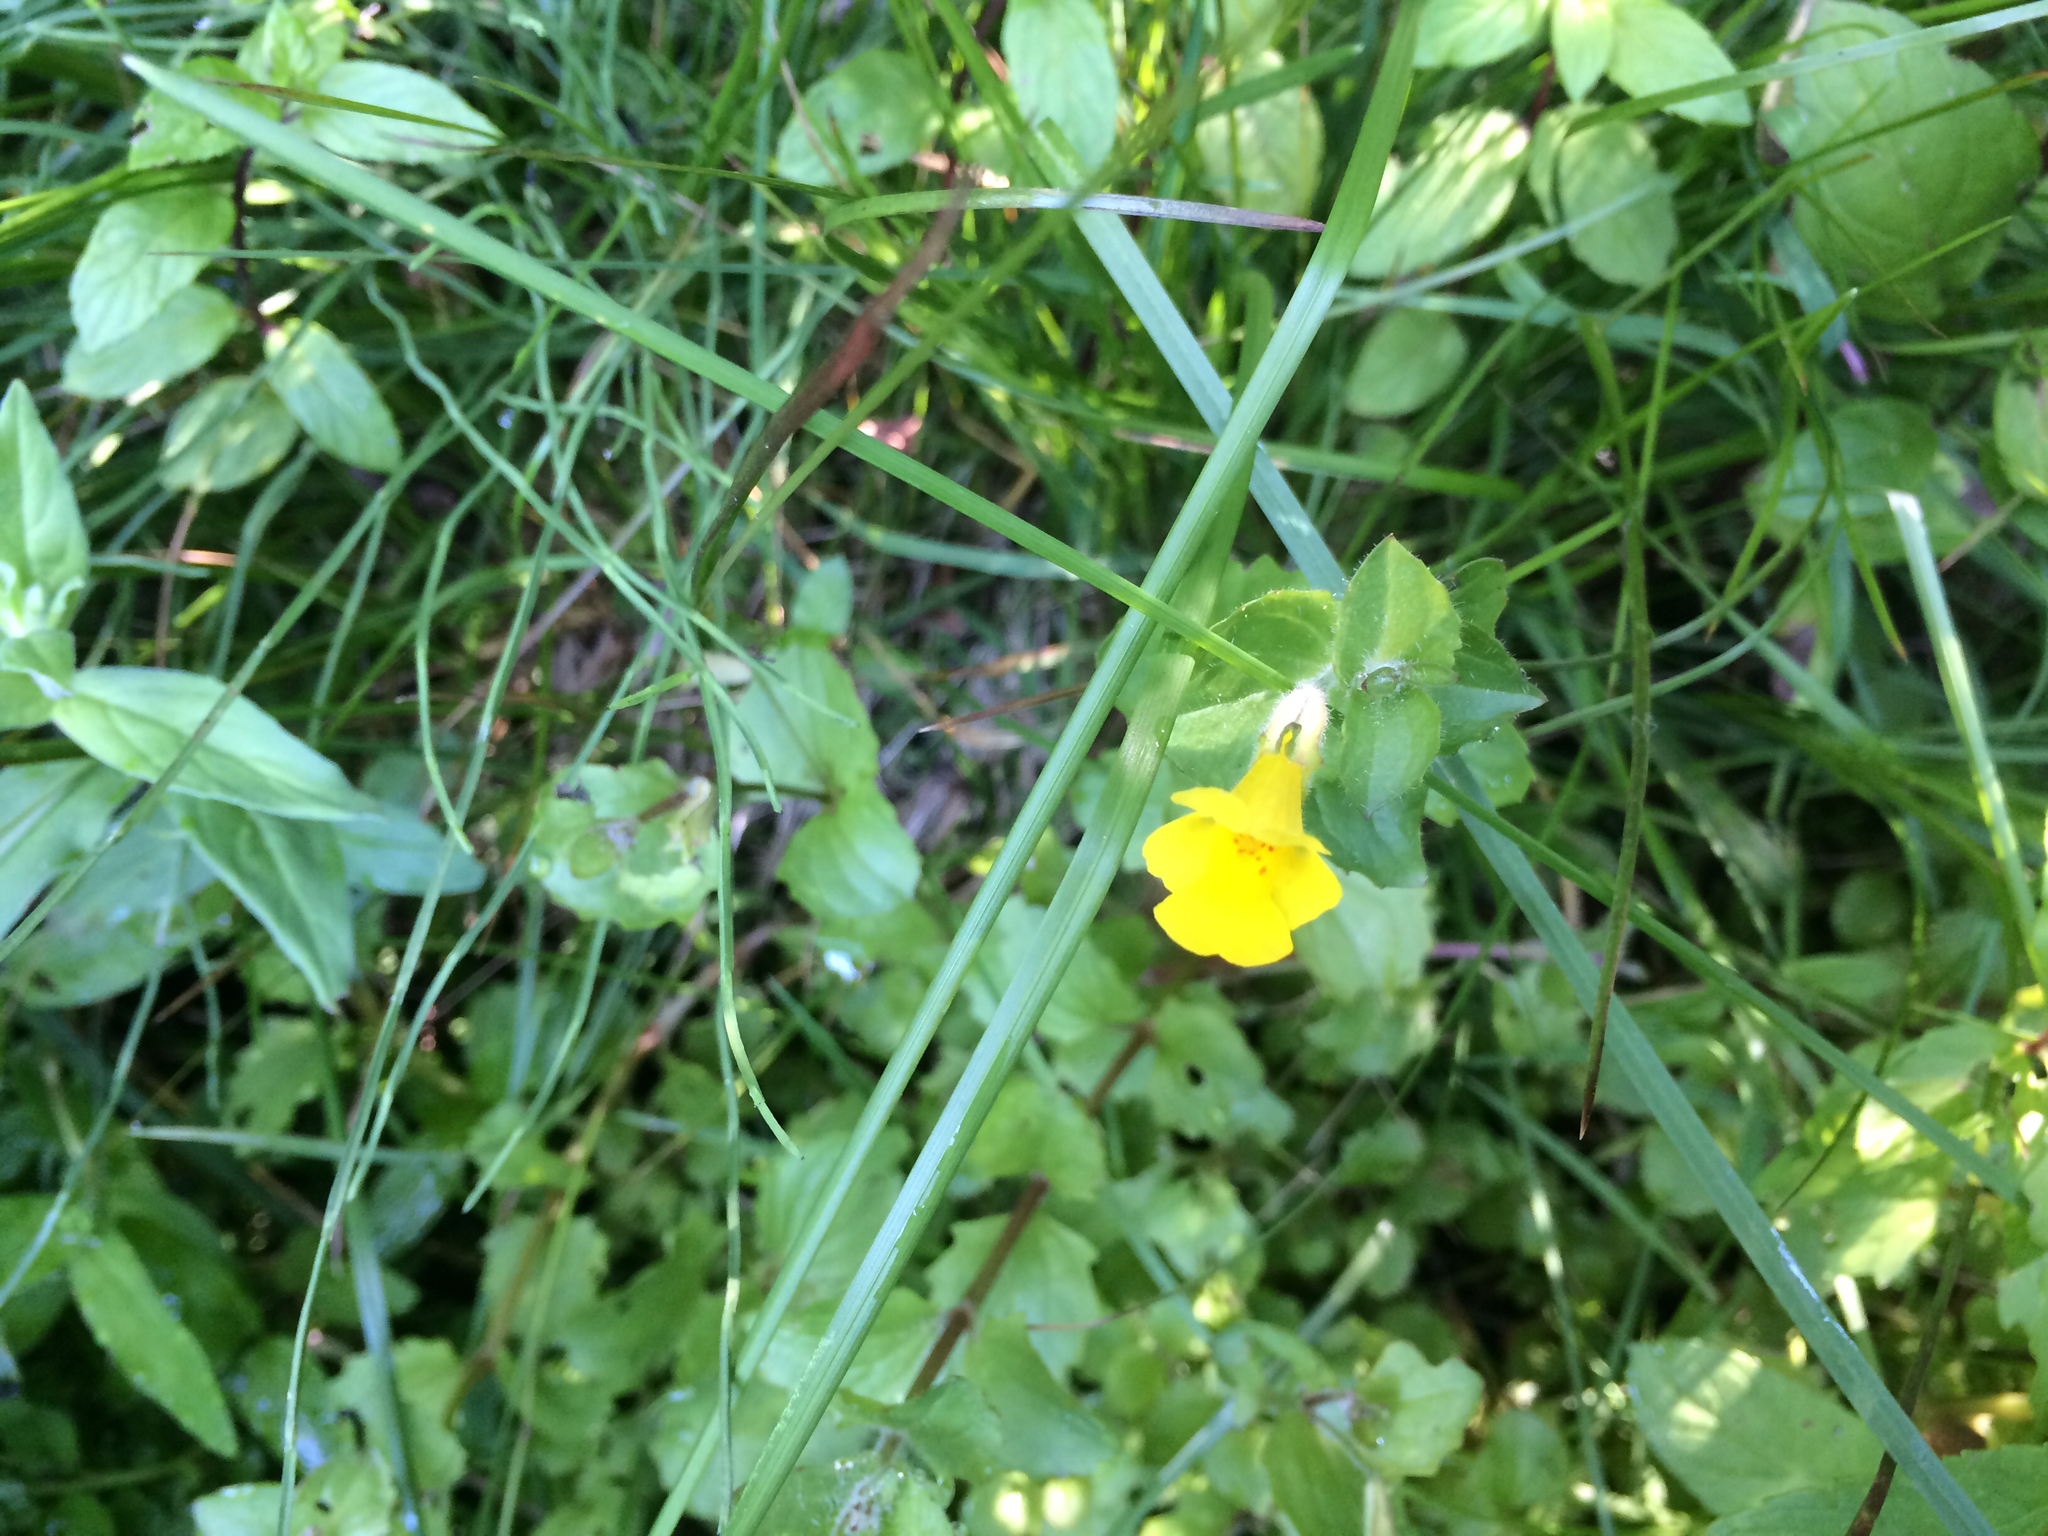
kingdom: Plantae
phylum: Tracheophyta
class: Magnoliopsida
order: Lamiales
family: Phrymaceae
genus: Erythranthe
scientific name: Erythranthe michiganensis
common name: Michigan monkey-flower
